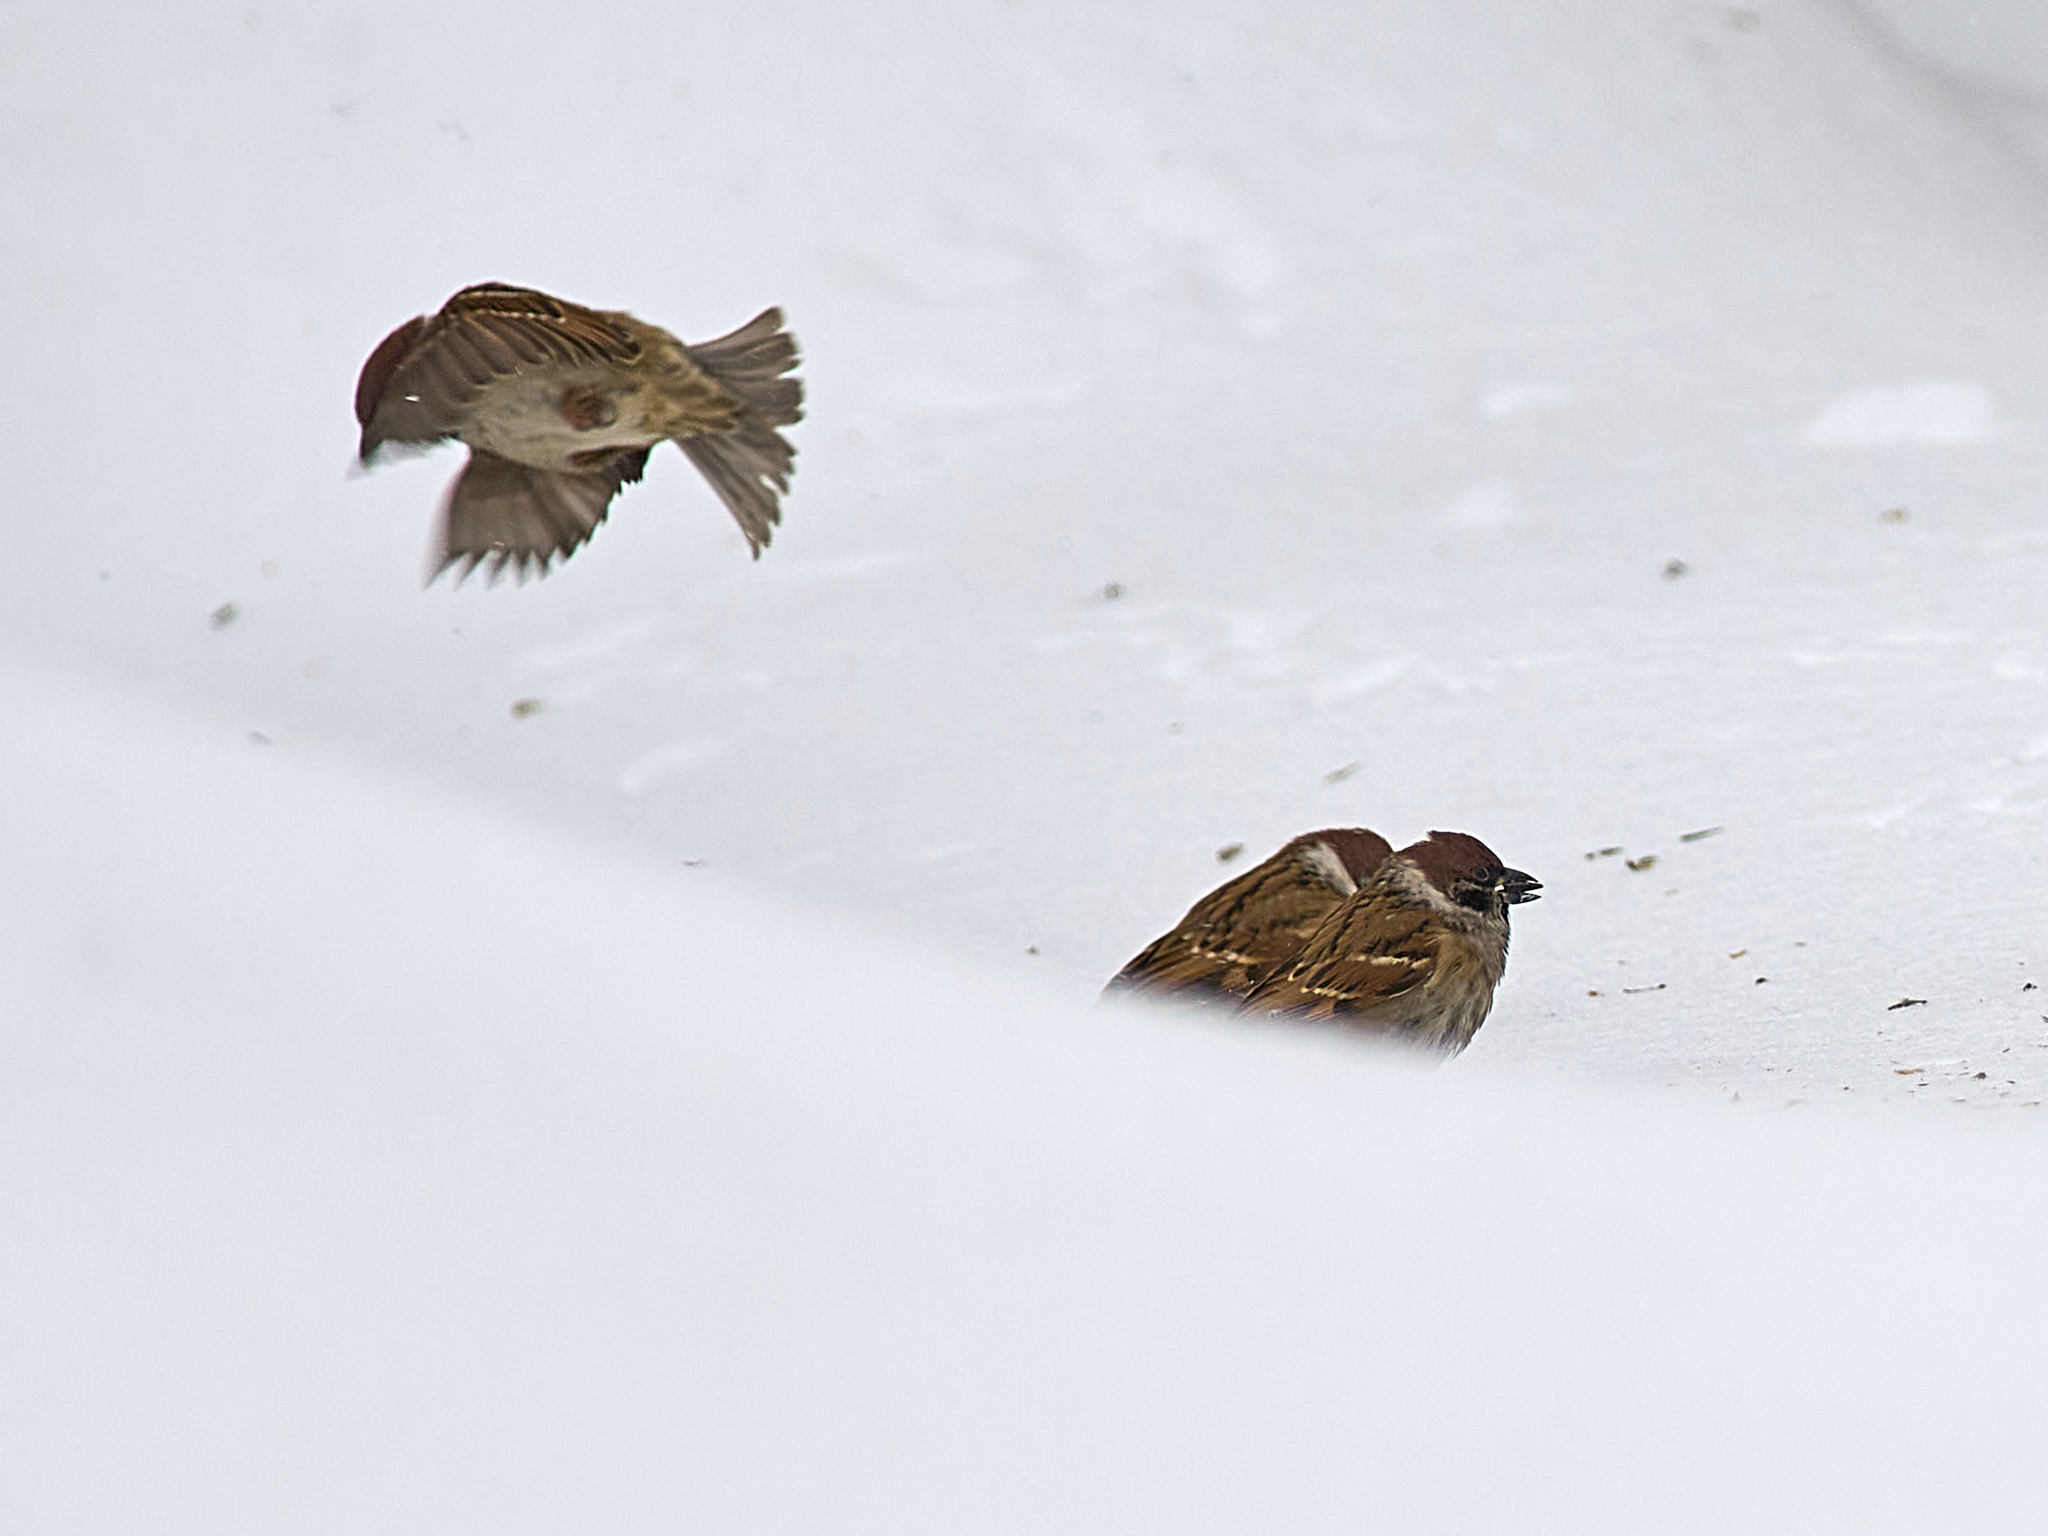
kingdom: Animalia
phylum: Chordata
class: Aves
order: Passeriformes
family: Passeridae
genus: Passer
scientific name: Passer montanus
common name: Eurasian tree sparrow
